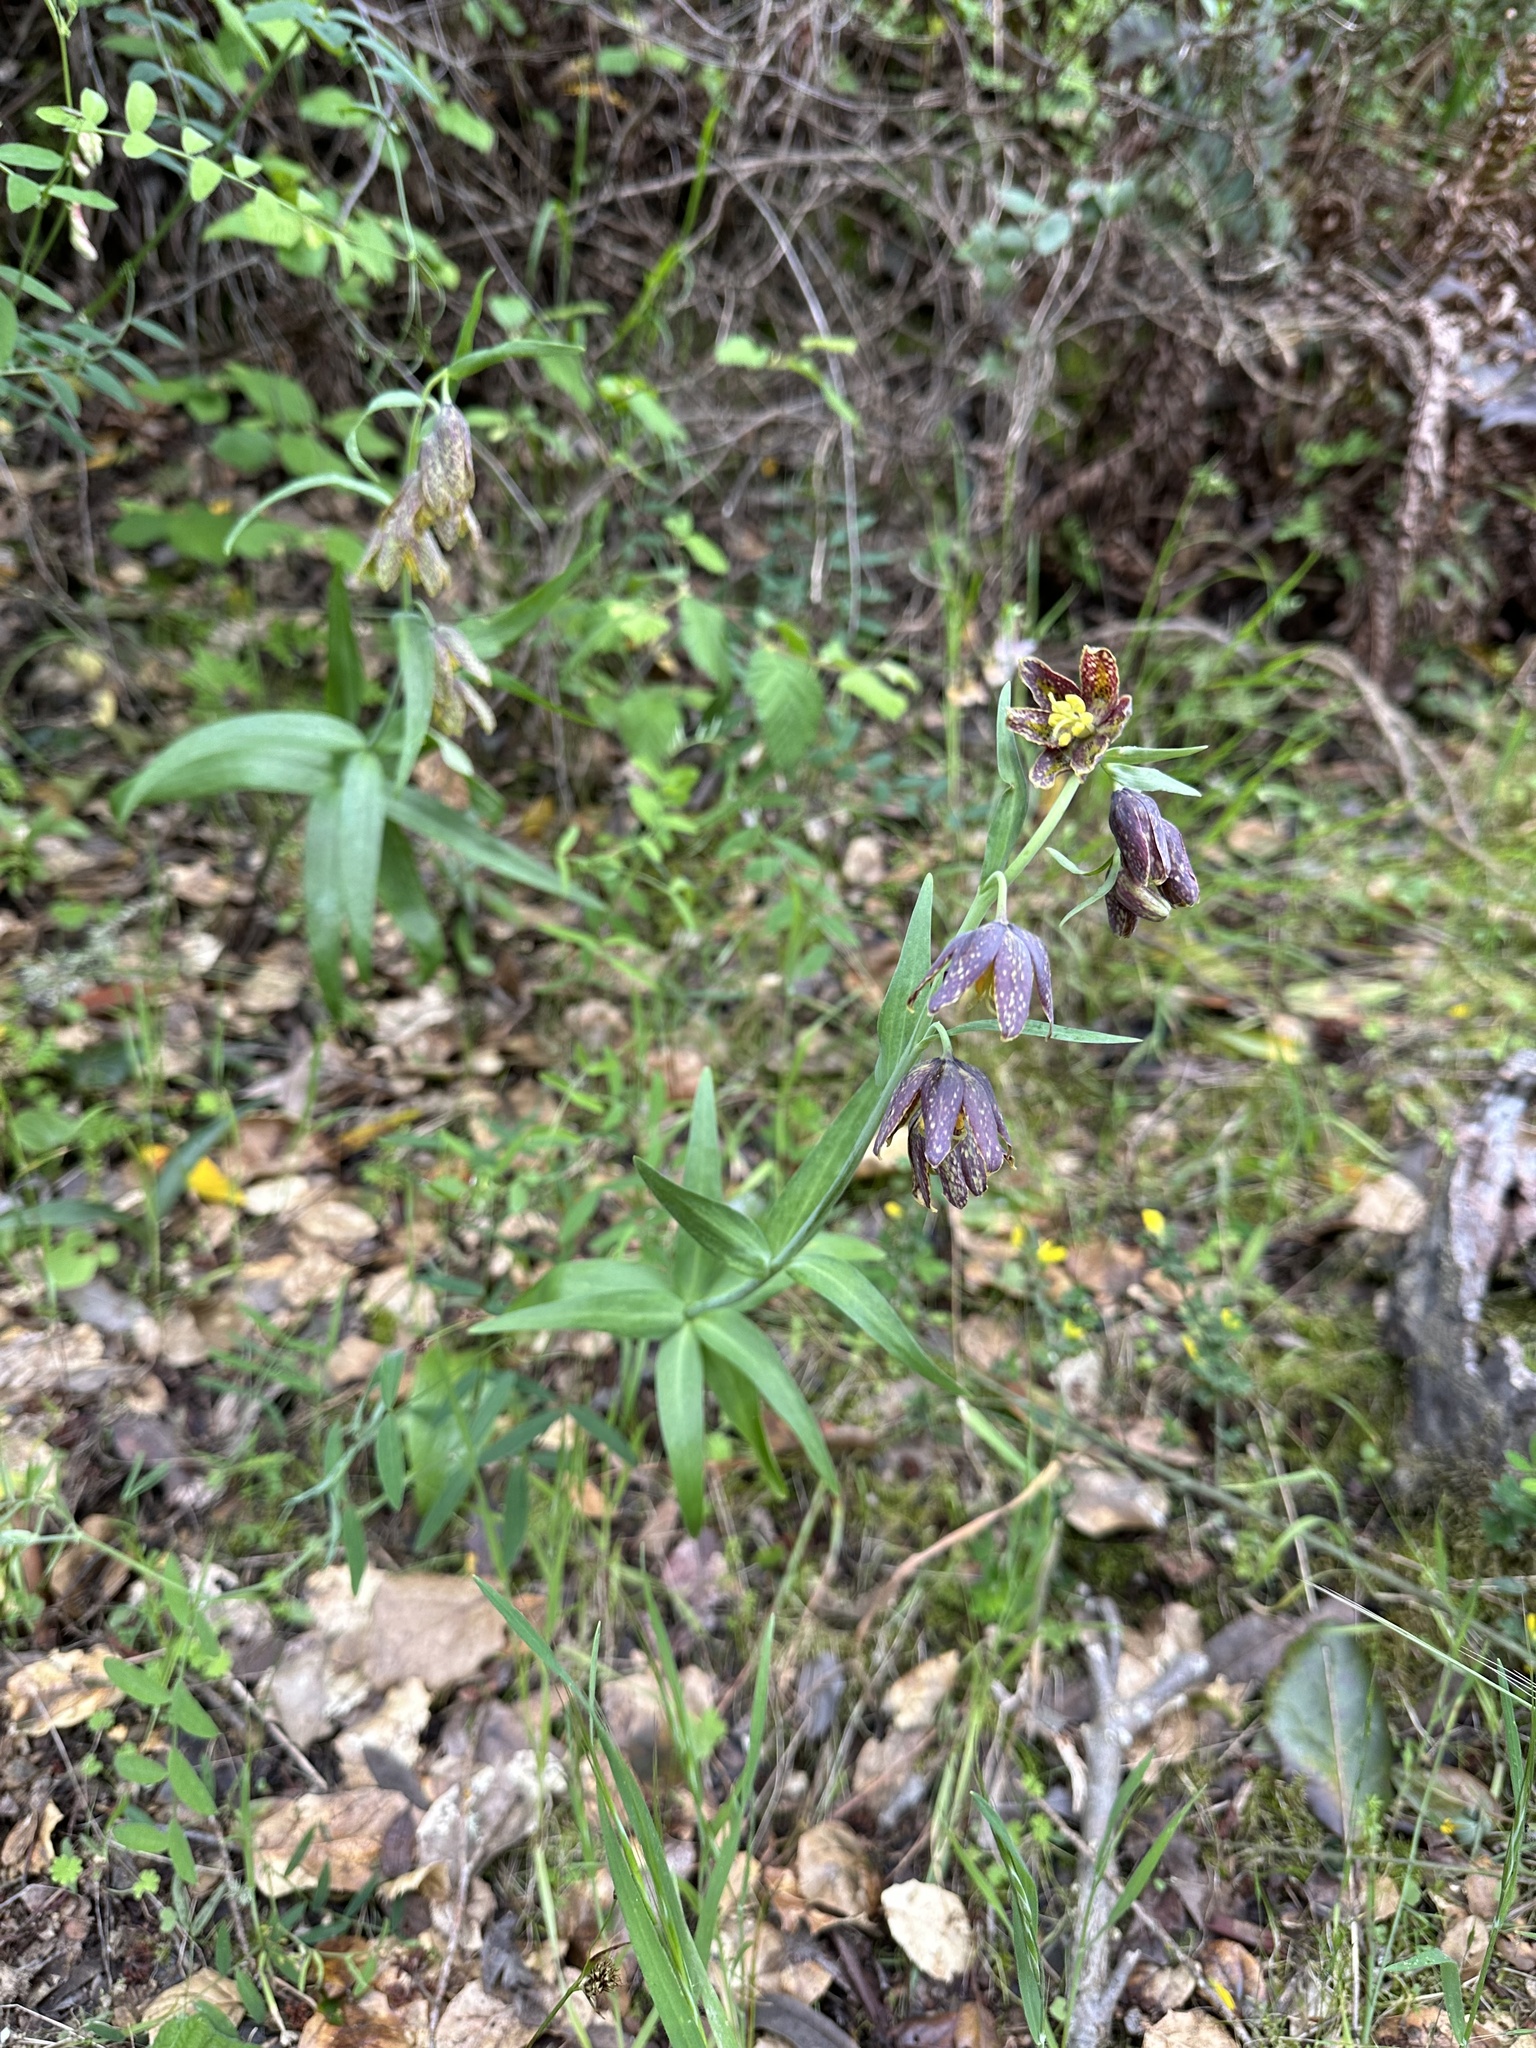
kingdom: Plantae
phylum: Tracheophyta
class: Liliopsida
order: Liliales
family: Liliaceae
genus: Fritillaria
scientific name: Fritillaria affinis
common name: Ojai fritillary
